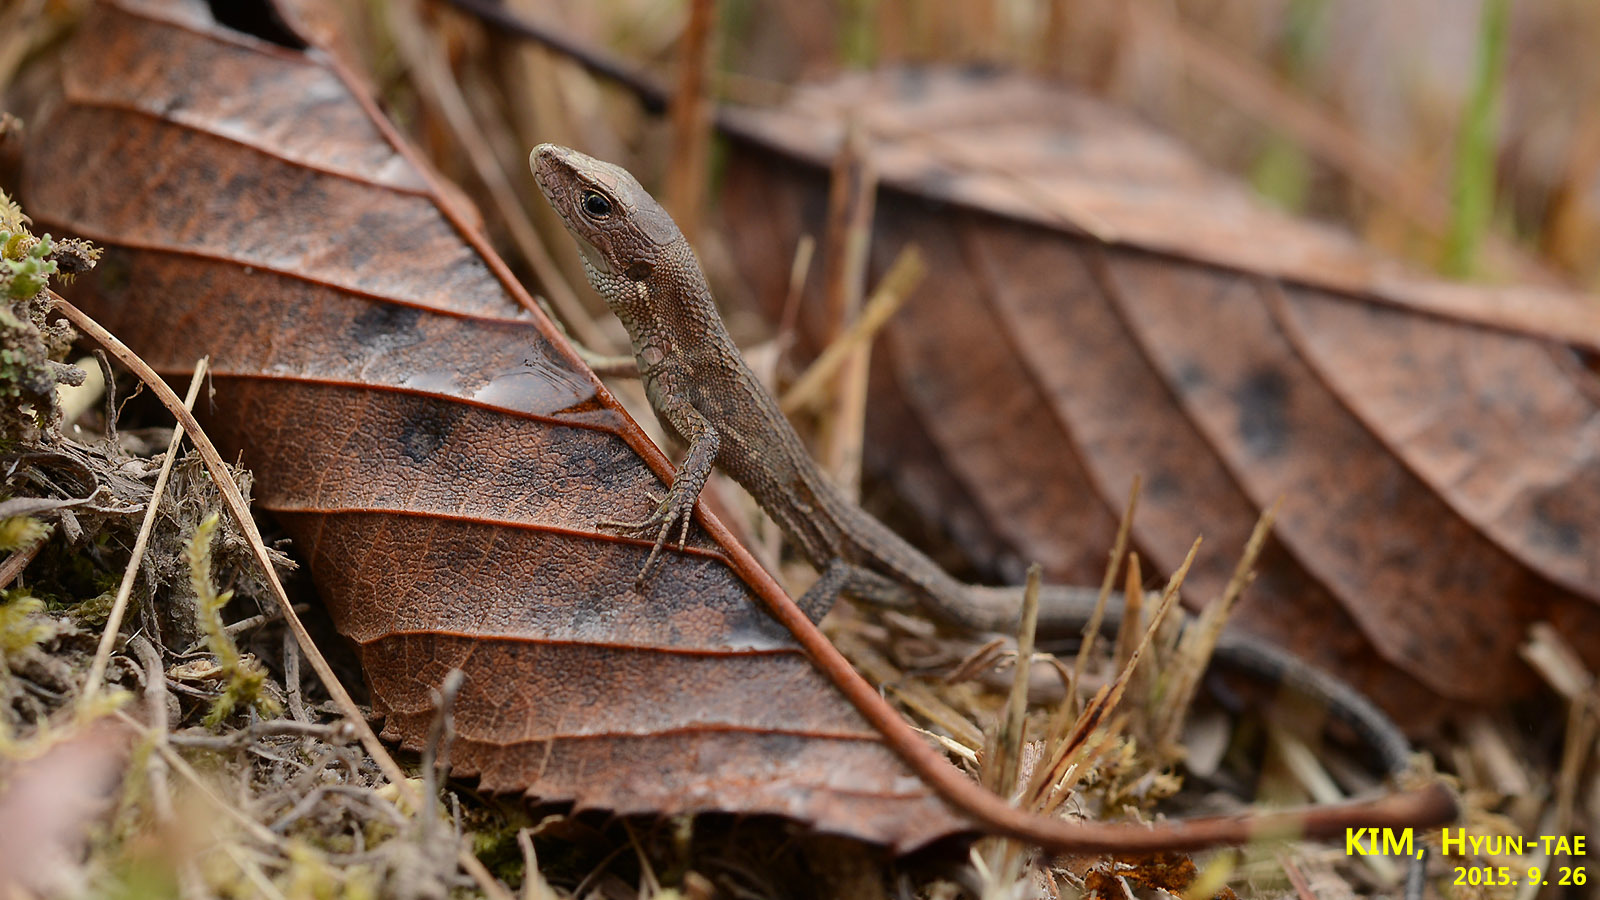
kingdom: Animalia
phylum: Chordata
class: Squamata
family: Lacertidae
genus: Takydromus
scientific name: Takydromus amurensis
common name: Amur grass lizard
